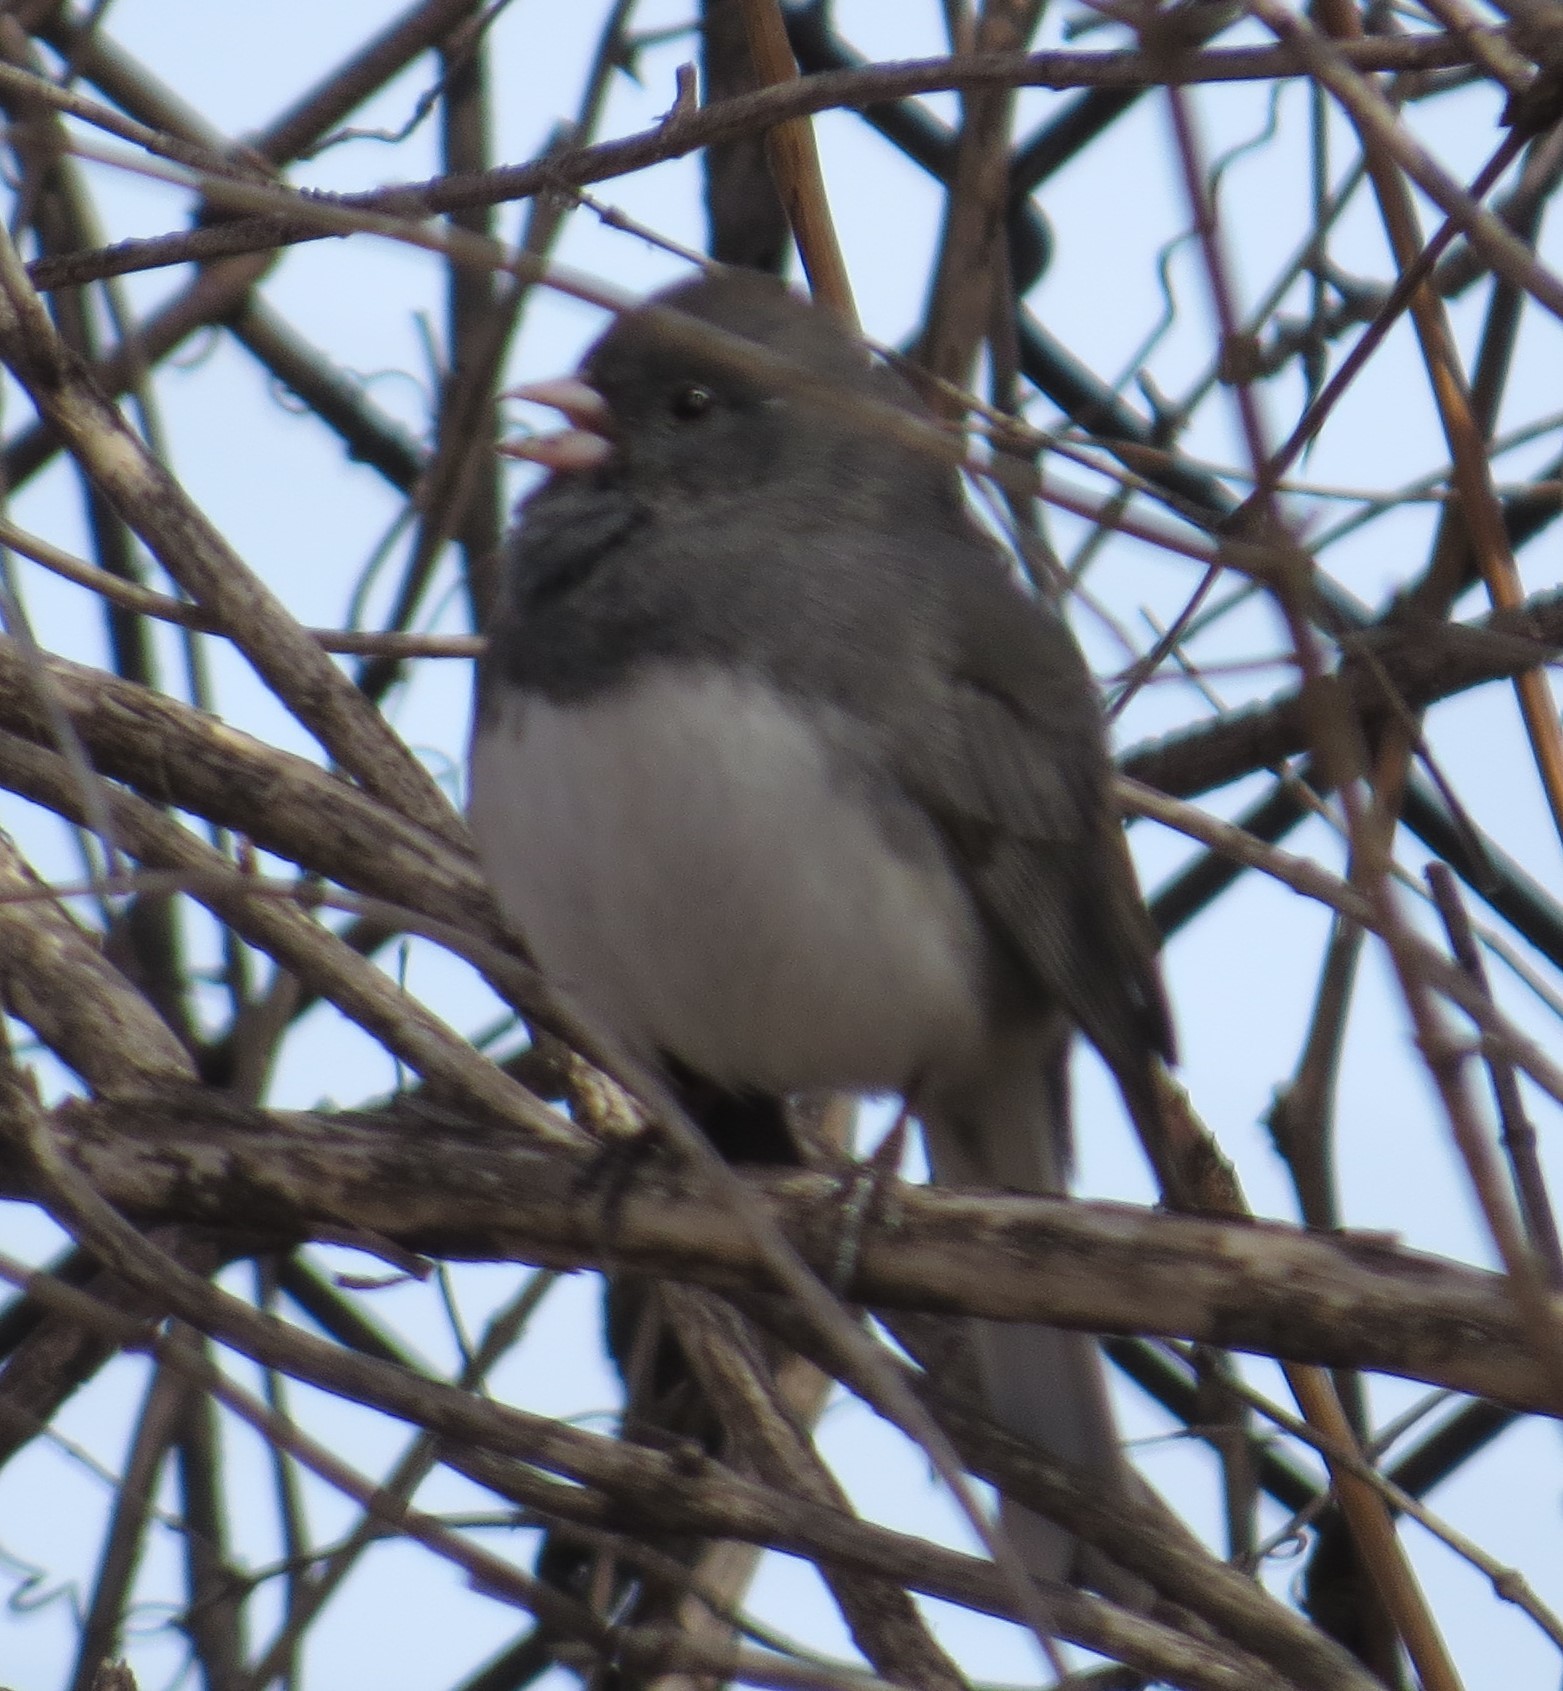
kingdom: Animalia
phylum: Chordata
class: Aves
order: Passeriformes
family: Passerellidae
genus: Junco
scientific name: Junco hyemalis
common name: Dark-eyed junco
